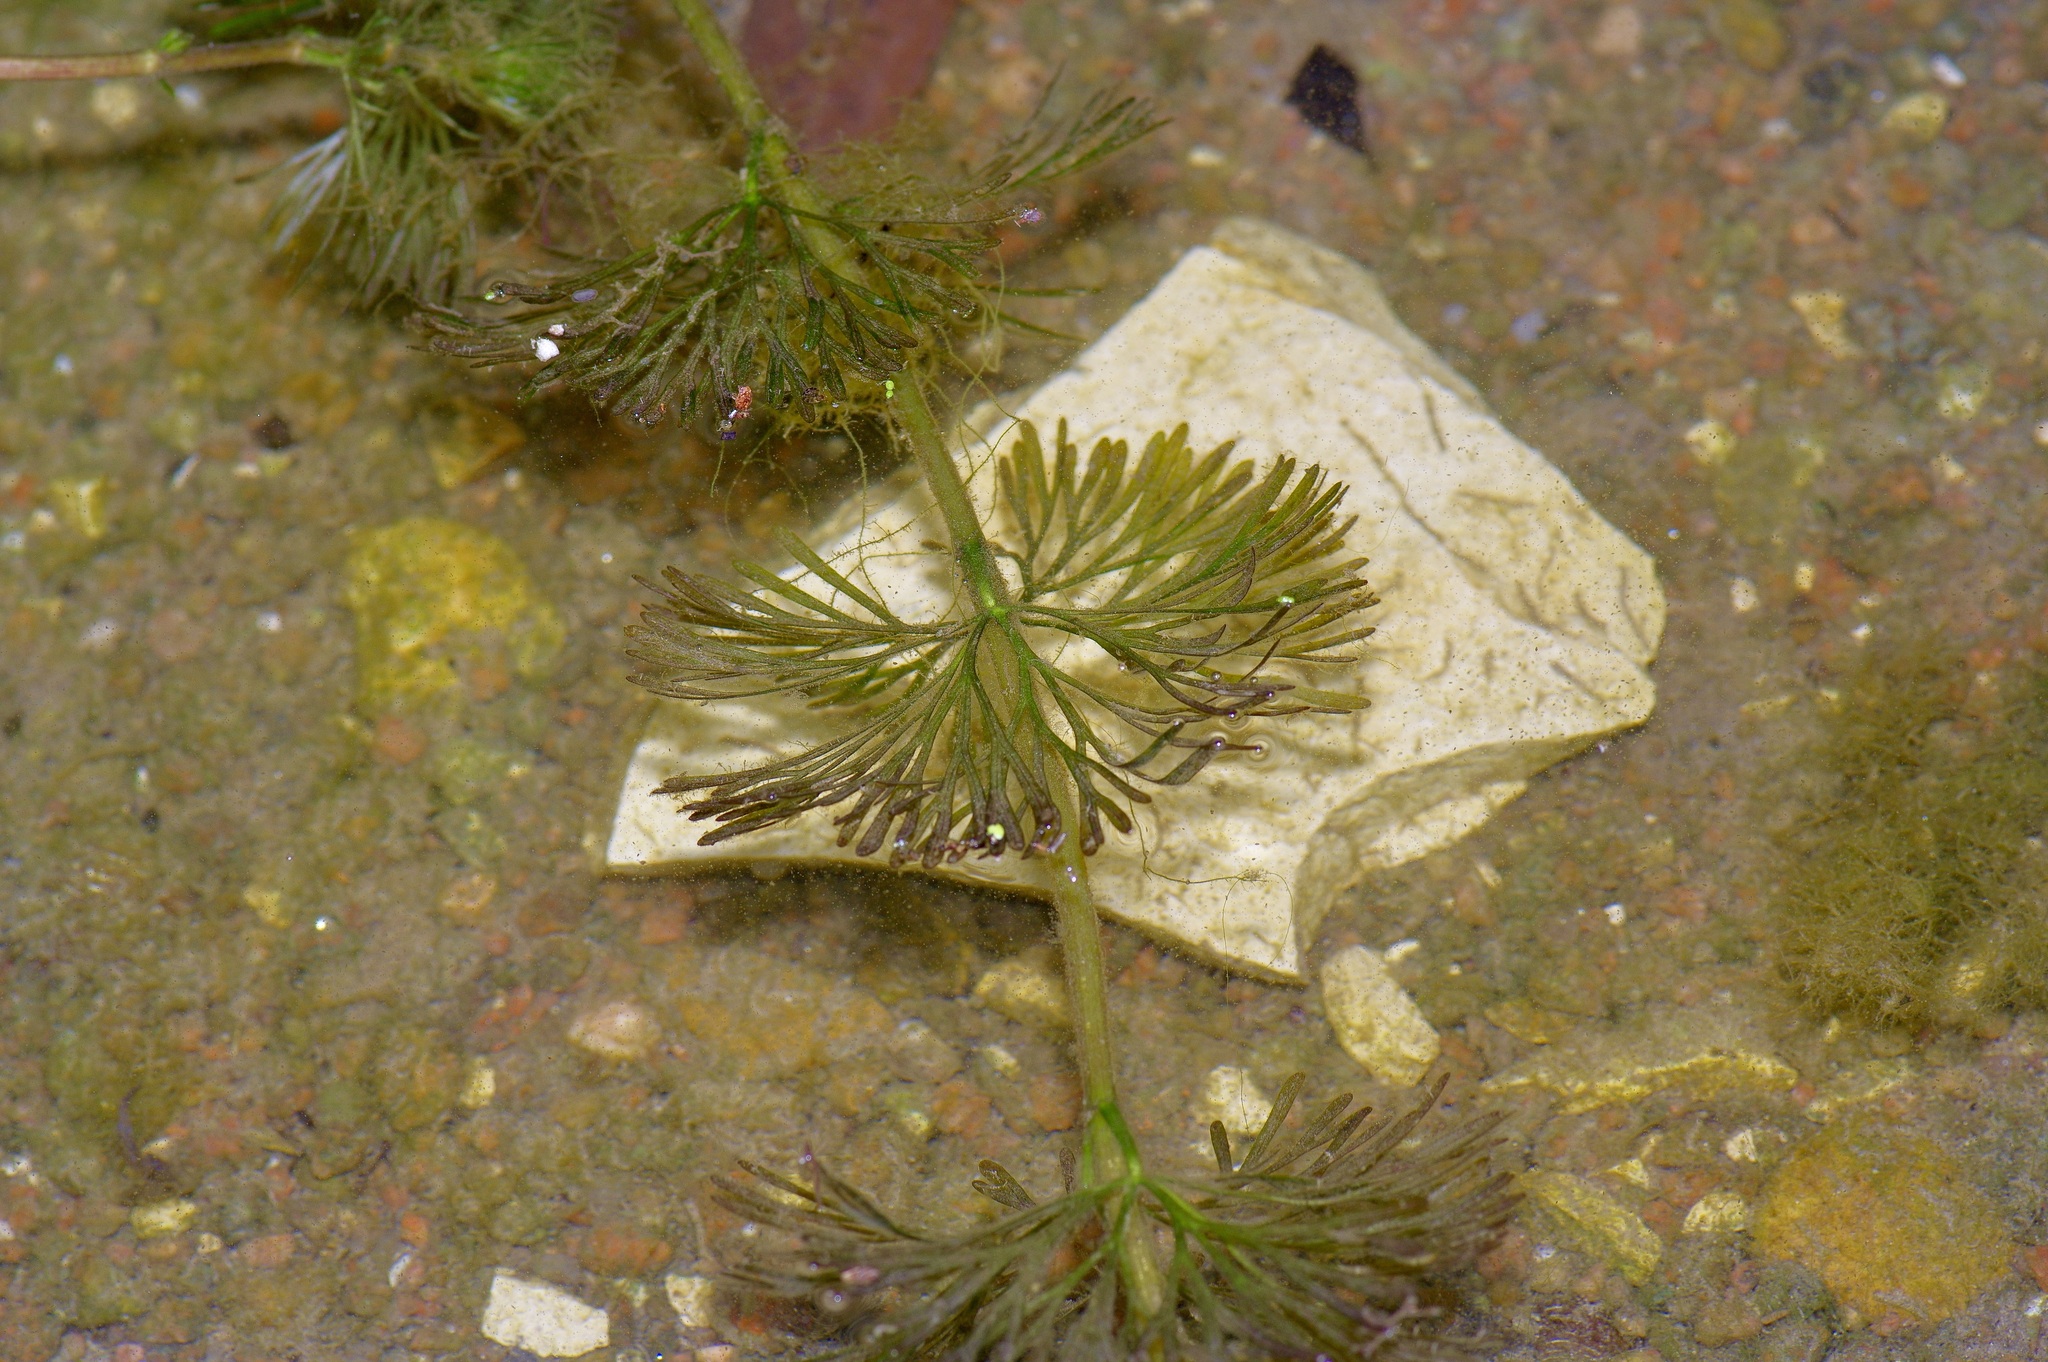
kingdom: Plantae
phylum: Tracheophyta
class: Magnoliopsida
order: Nymphaeales
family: Cabombaceae
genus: Cabomba
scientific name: Cabomba caroliniana
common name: Fanwort
